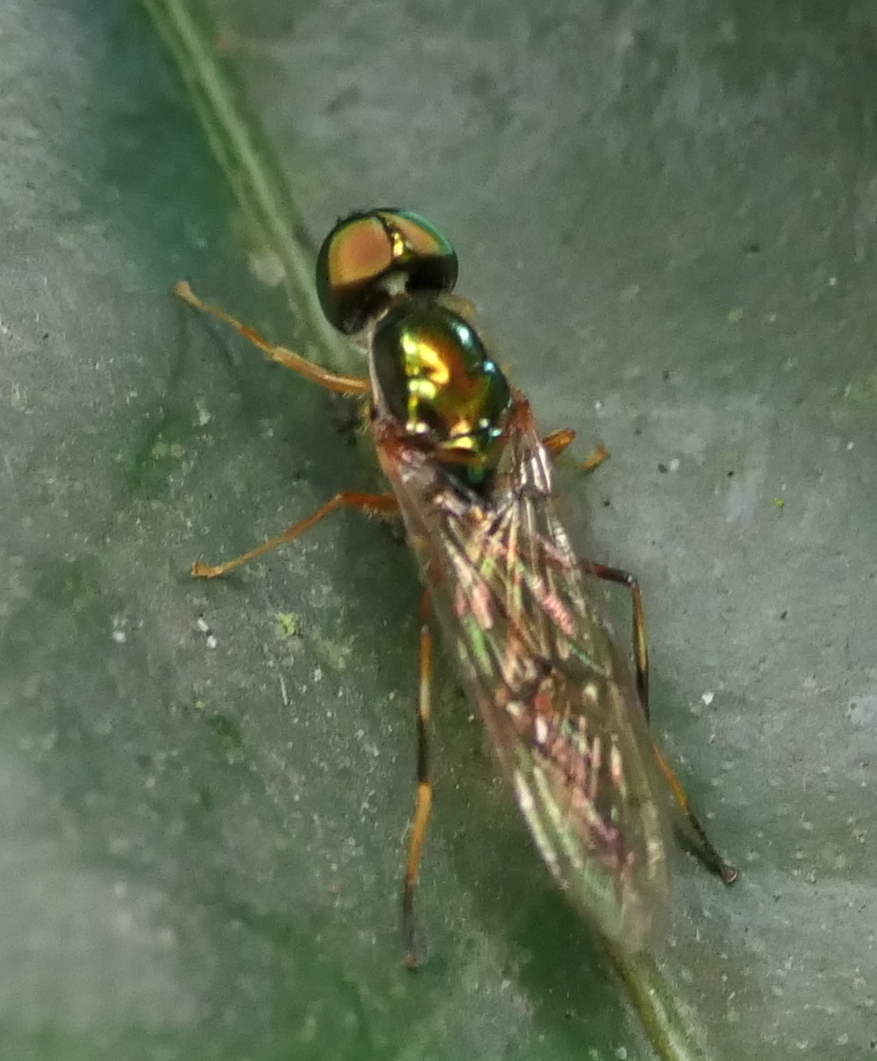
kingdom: Animalia
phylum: Arthropoda
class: Insecta
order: Diptera
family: Stratiomyidae
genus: Sargus
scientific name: Sargus fasciatus
